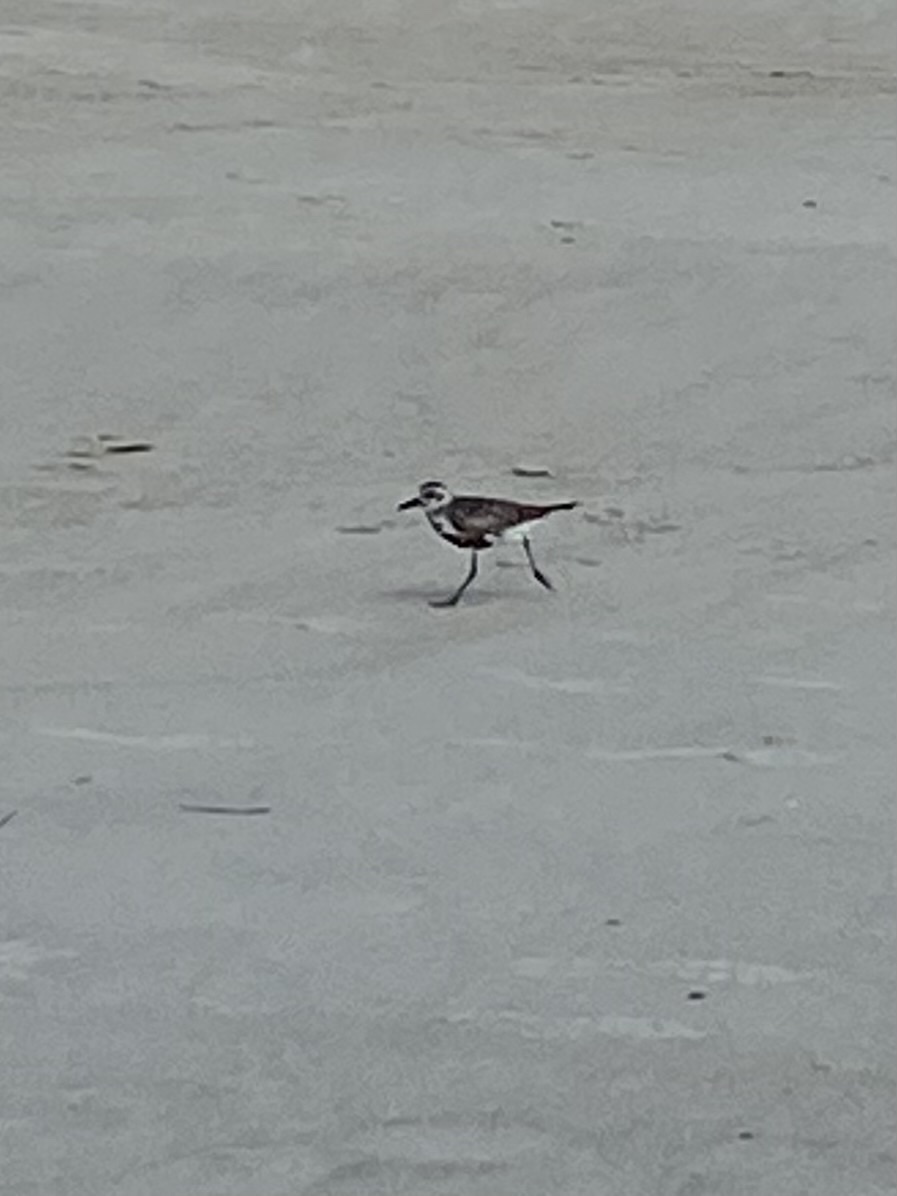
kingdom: Animalia
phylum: Chordata
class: Aves
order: Charadriiformes
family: Charadriidae
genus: Pluvialis
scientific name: Pluvialis squatarola
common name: Grey plover
